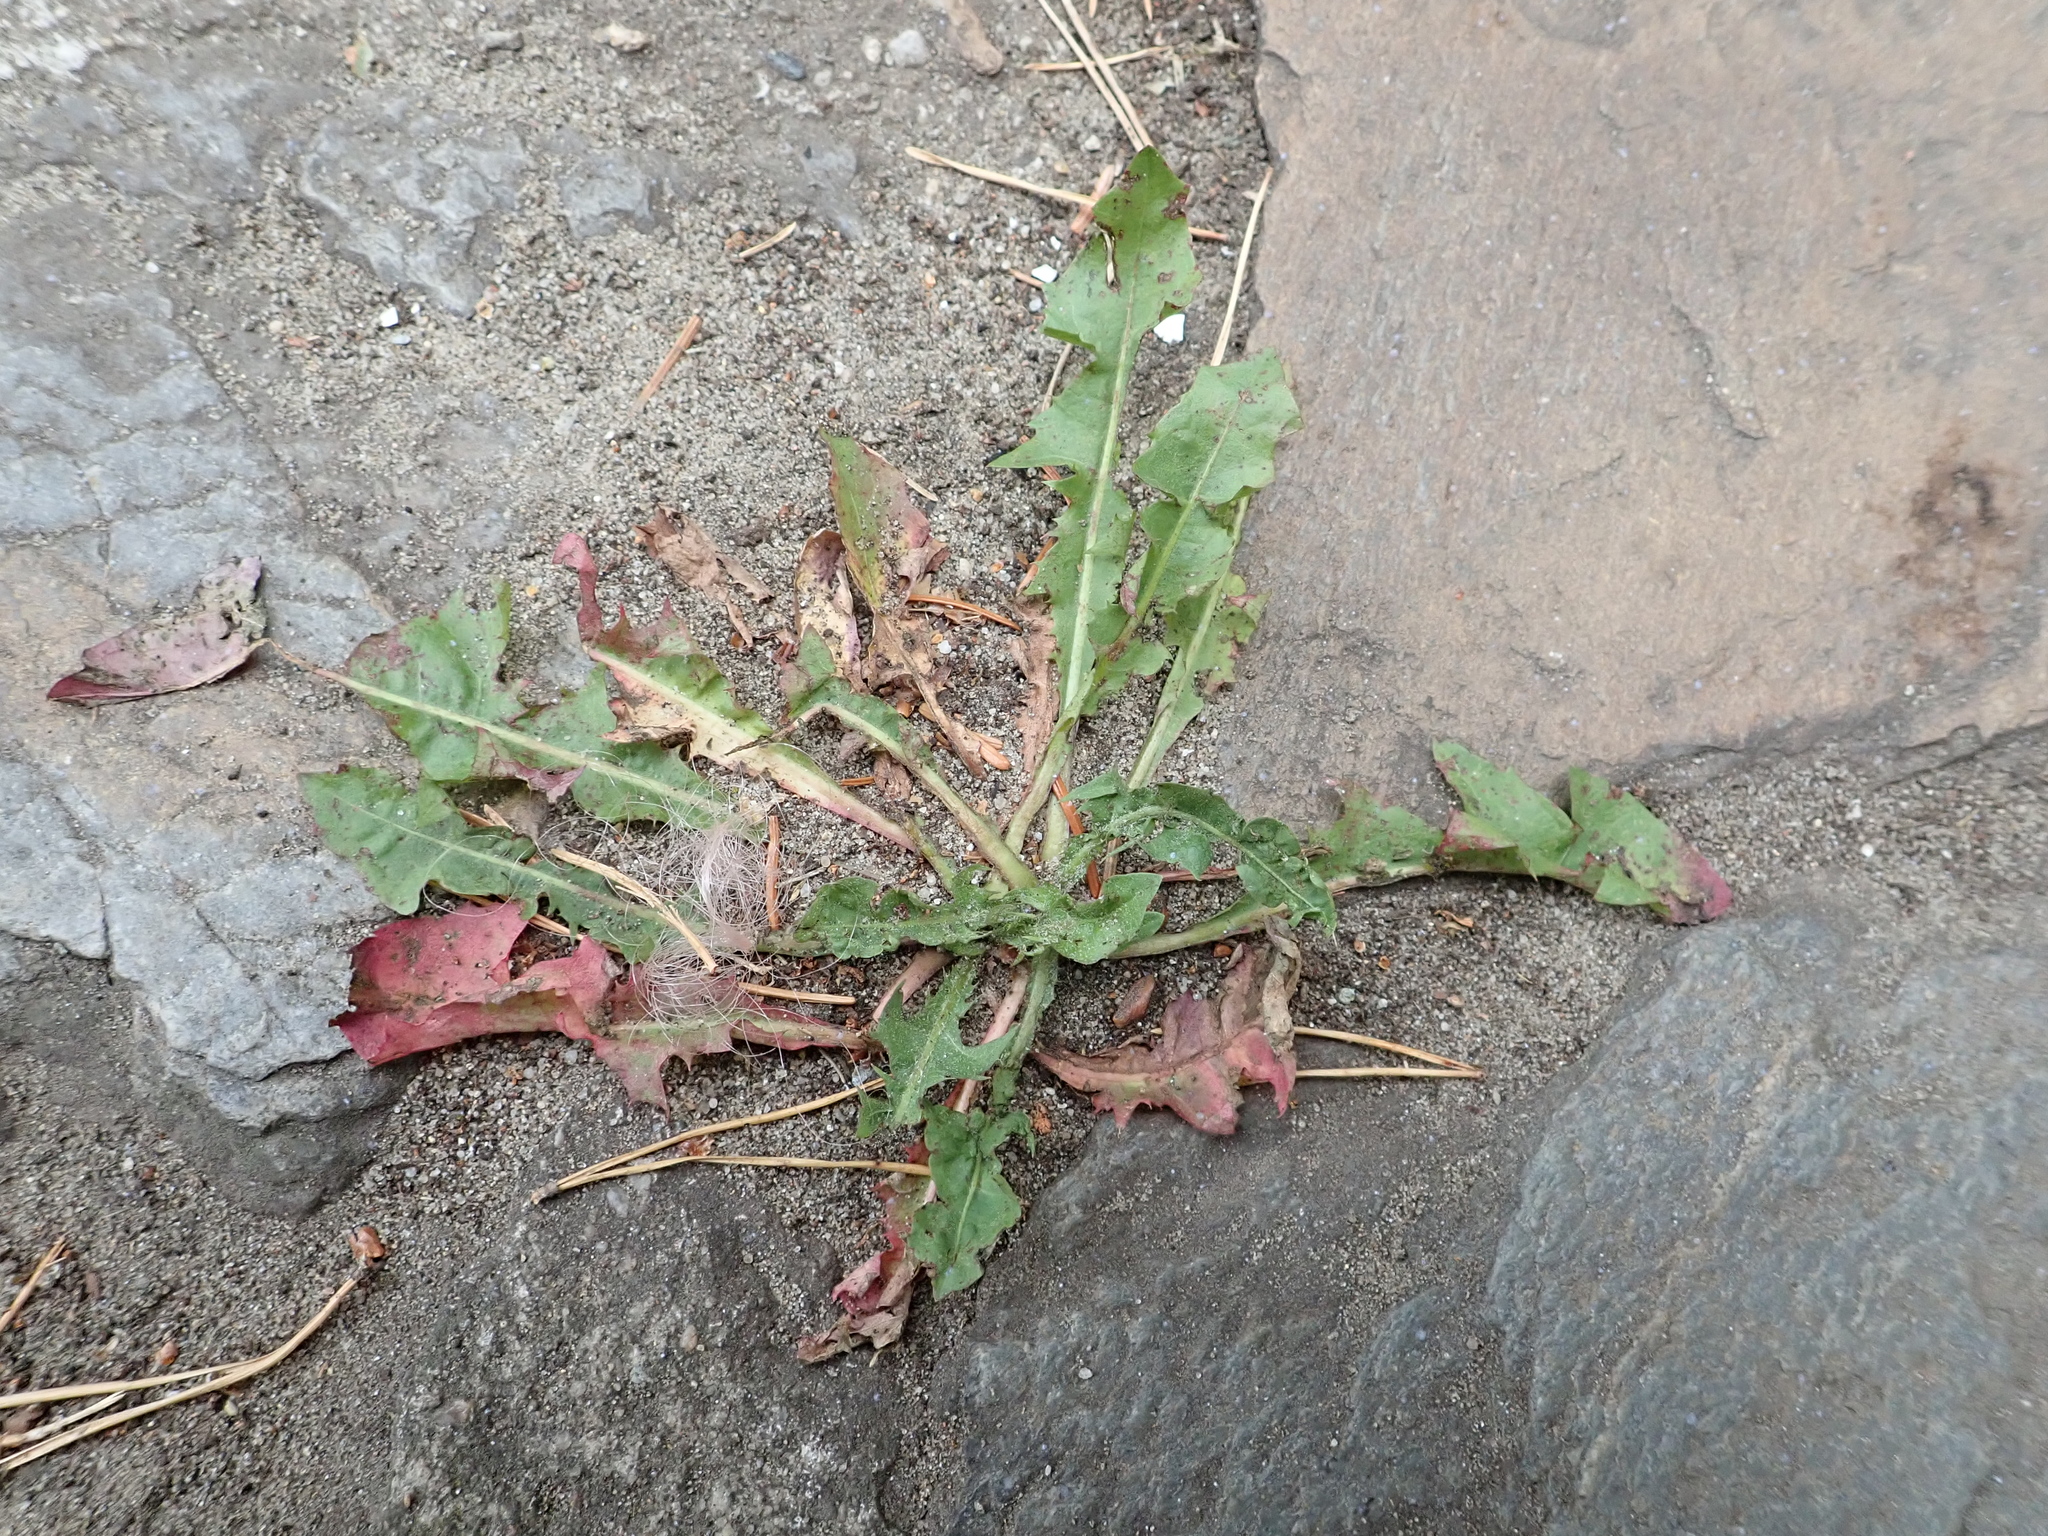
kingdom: Plantae
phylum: Tracheophyta
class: Magnoliopsida
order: Asterales
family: Asteraceae
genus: Taraxacum
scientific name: Taraxacum officinale
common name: Common dandelion
